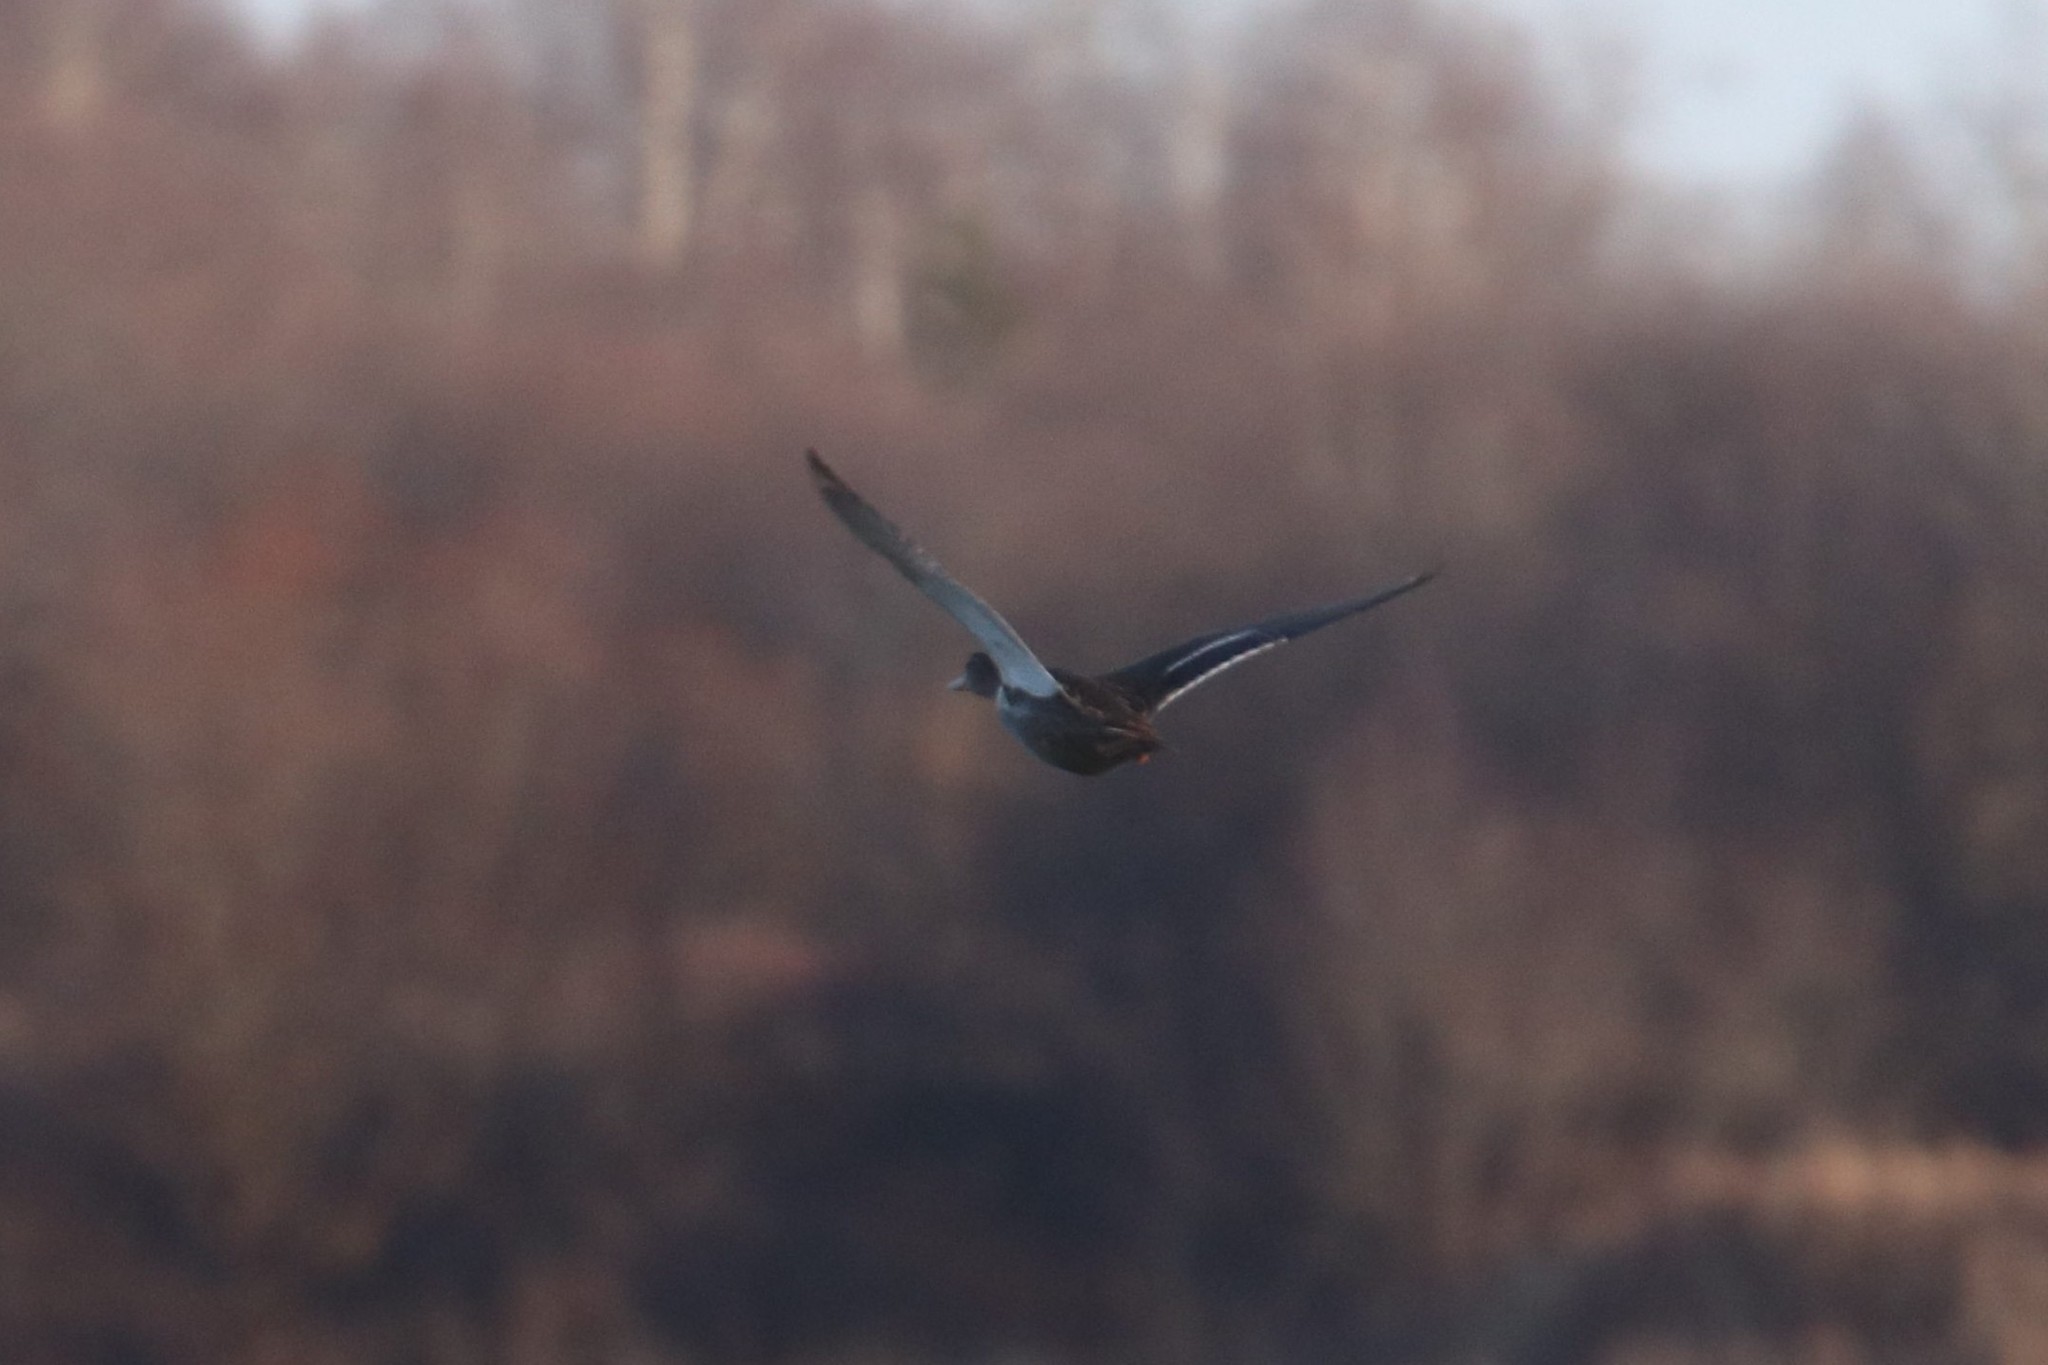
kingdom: Animalia
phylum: Chordata
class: Aves
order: Anseriformes
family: Anatidae
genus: Anas
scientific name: Anas platyrhynchos
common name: Mallard
